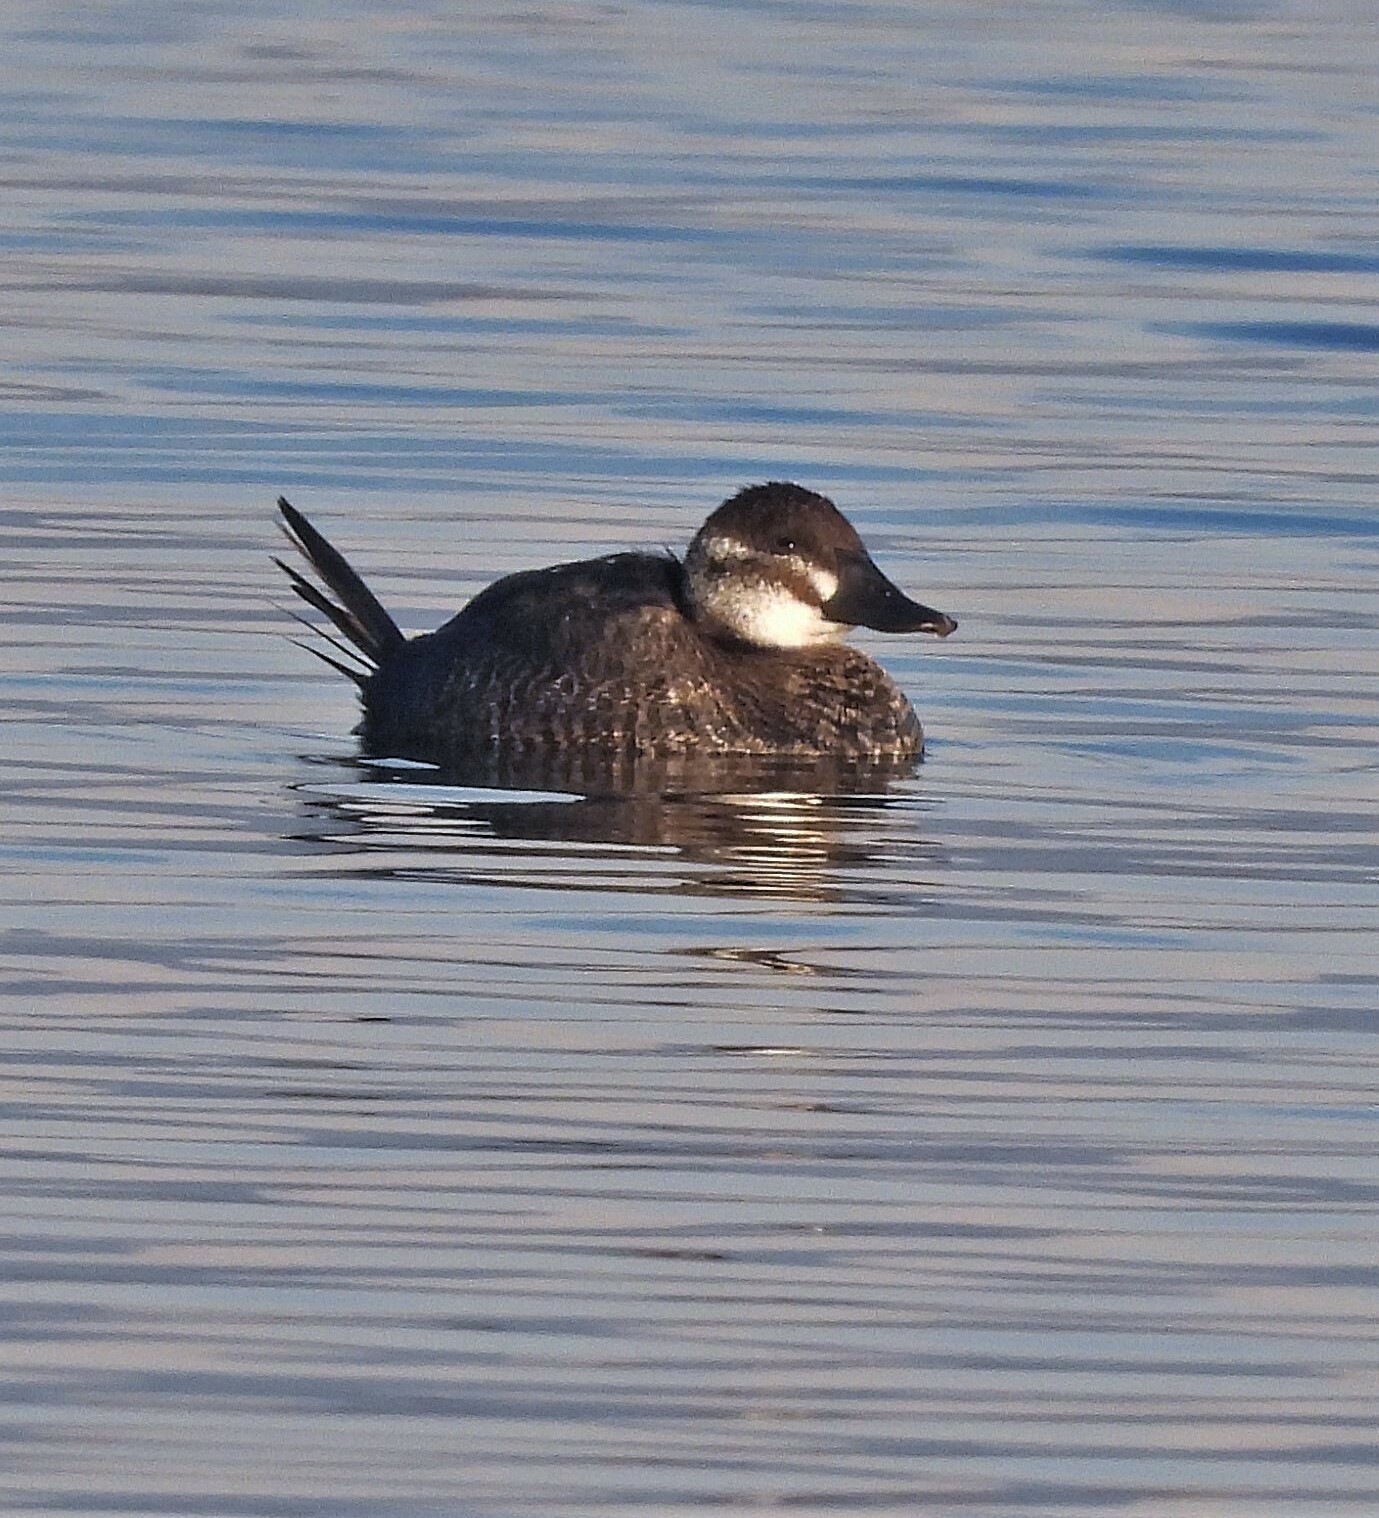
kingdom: Animalia
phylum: Chordata
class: Aves
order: Anseriformes
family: Anatidae
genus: Oxyura
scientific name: Oxyura vittata
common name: Lake duck
